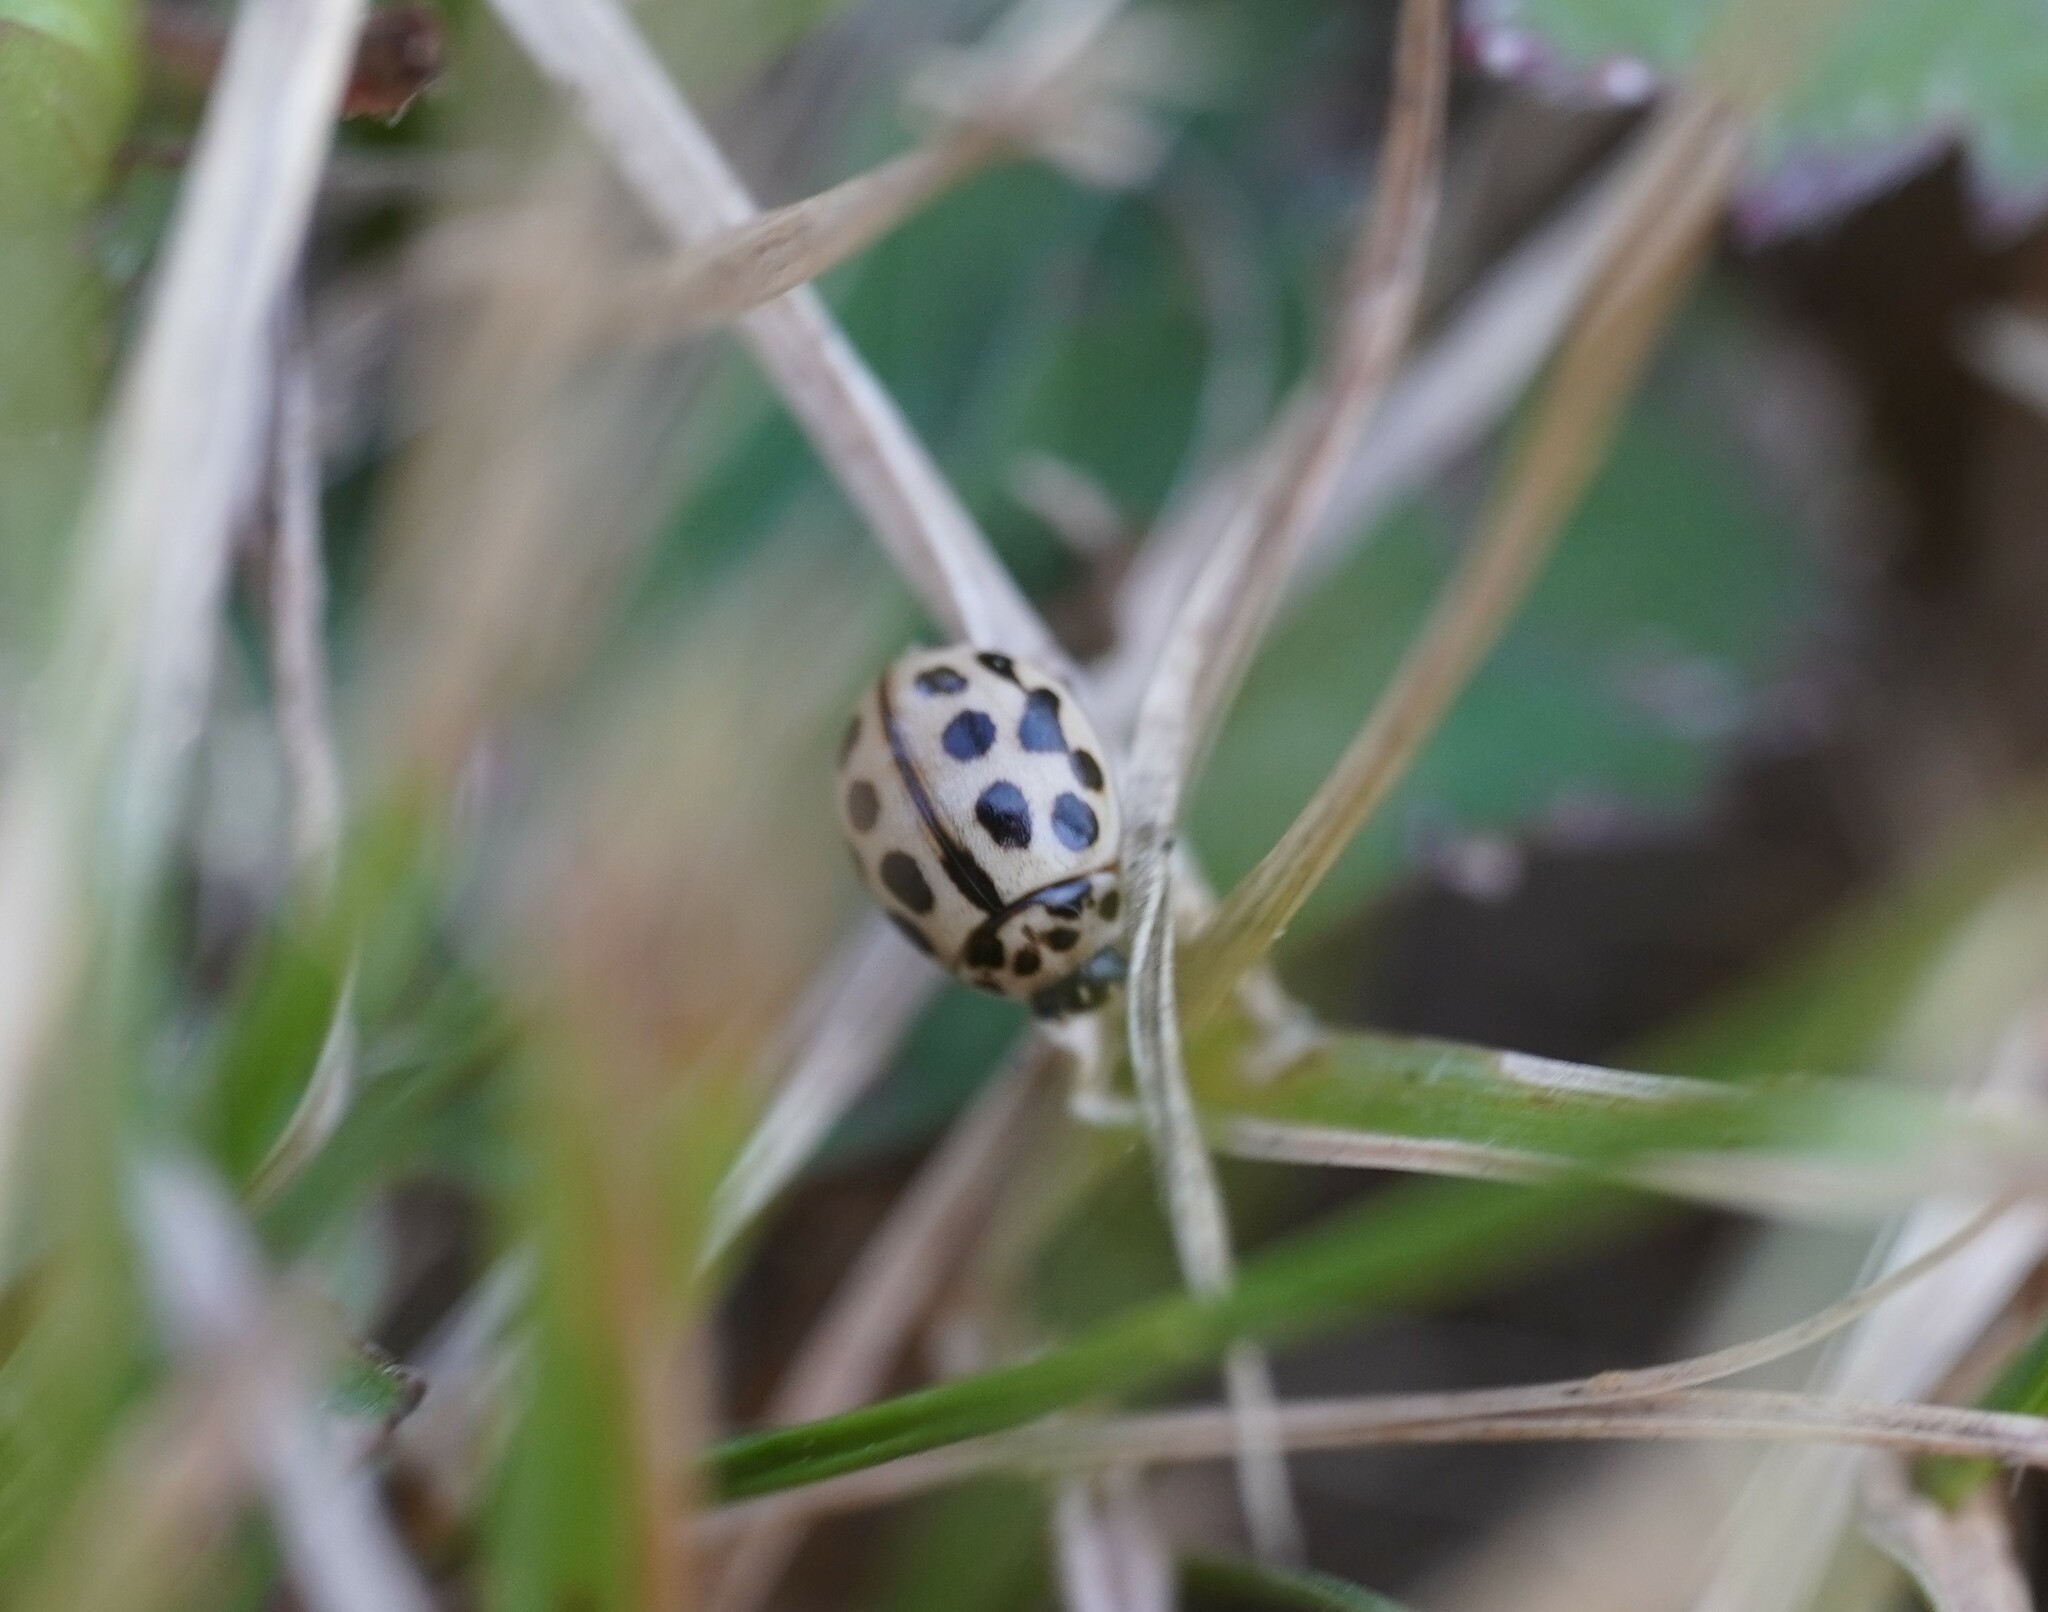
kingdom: Animalia
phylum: Arthropoda
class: Insecta
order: Coleoptera
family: Coccinellidae
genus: Tytthaspis
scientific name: Tytthaspis sedecimpunctata
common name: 16-spot ladybird
